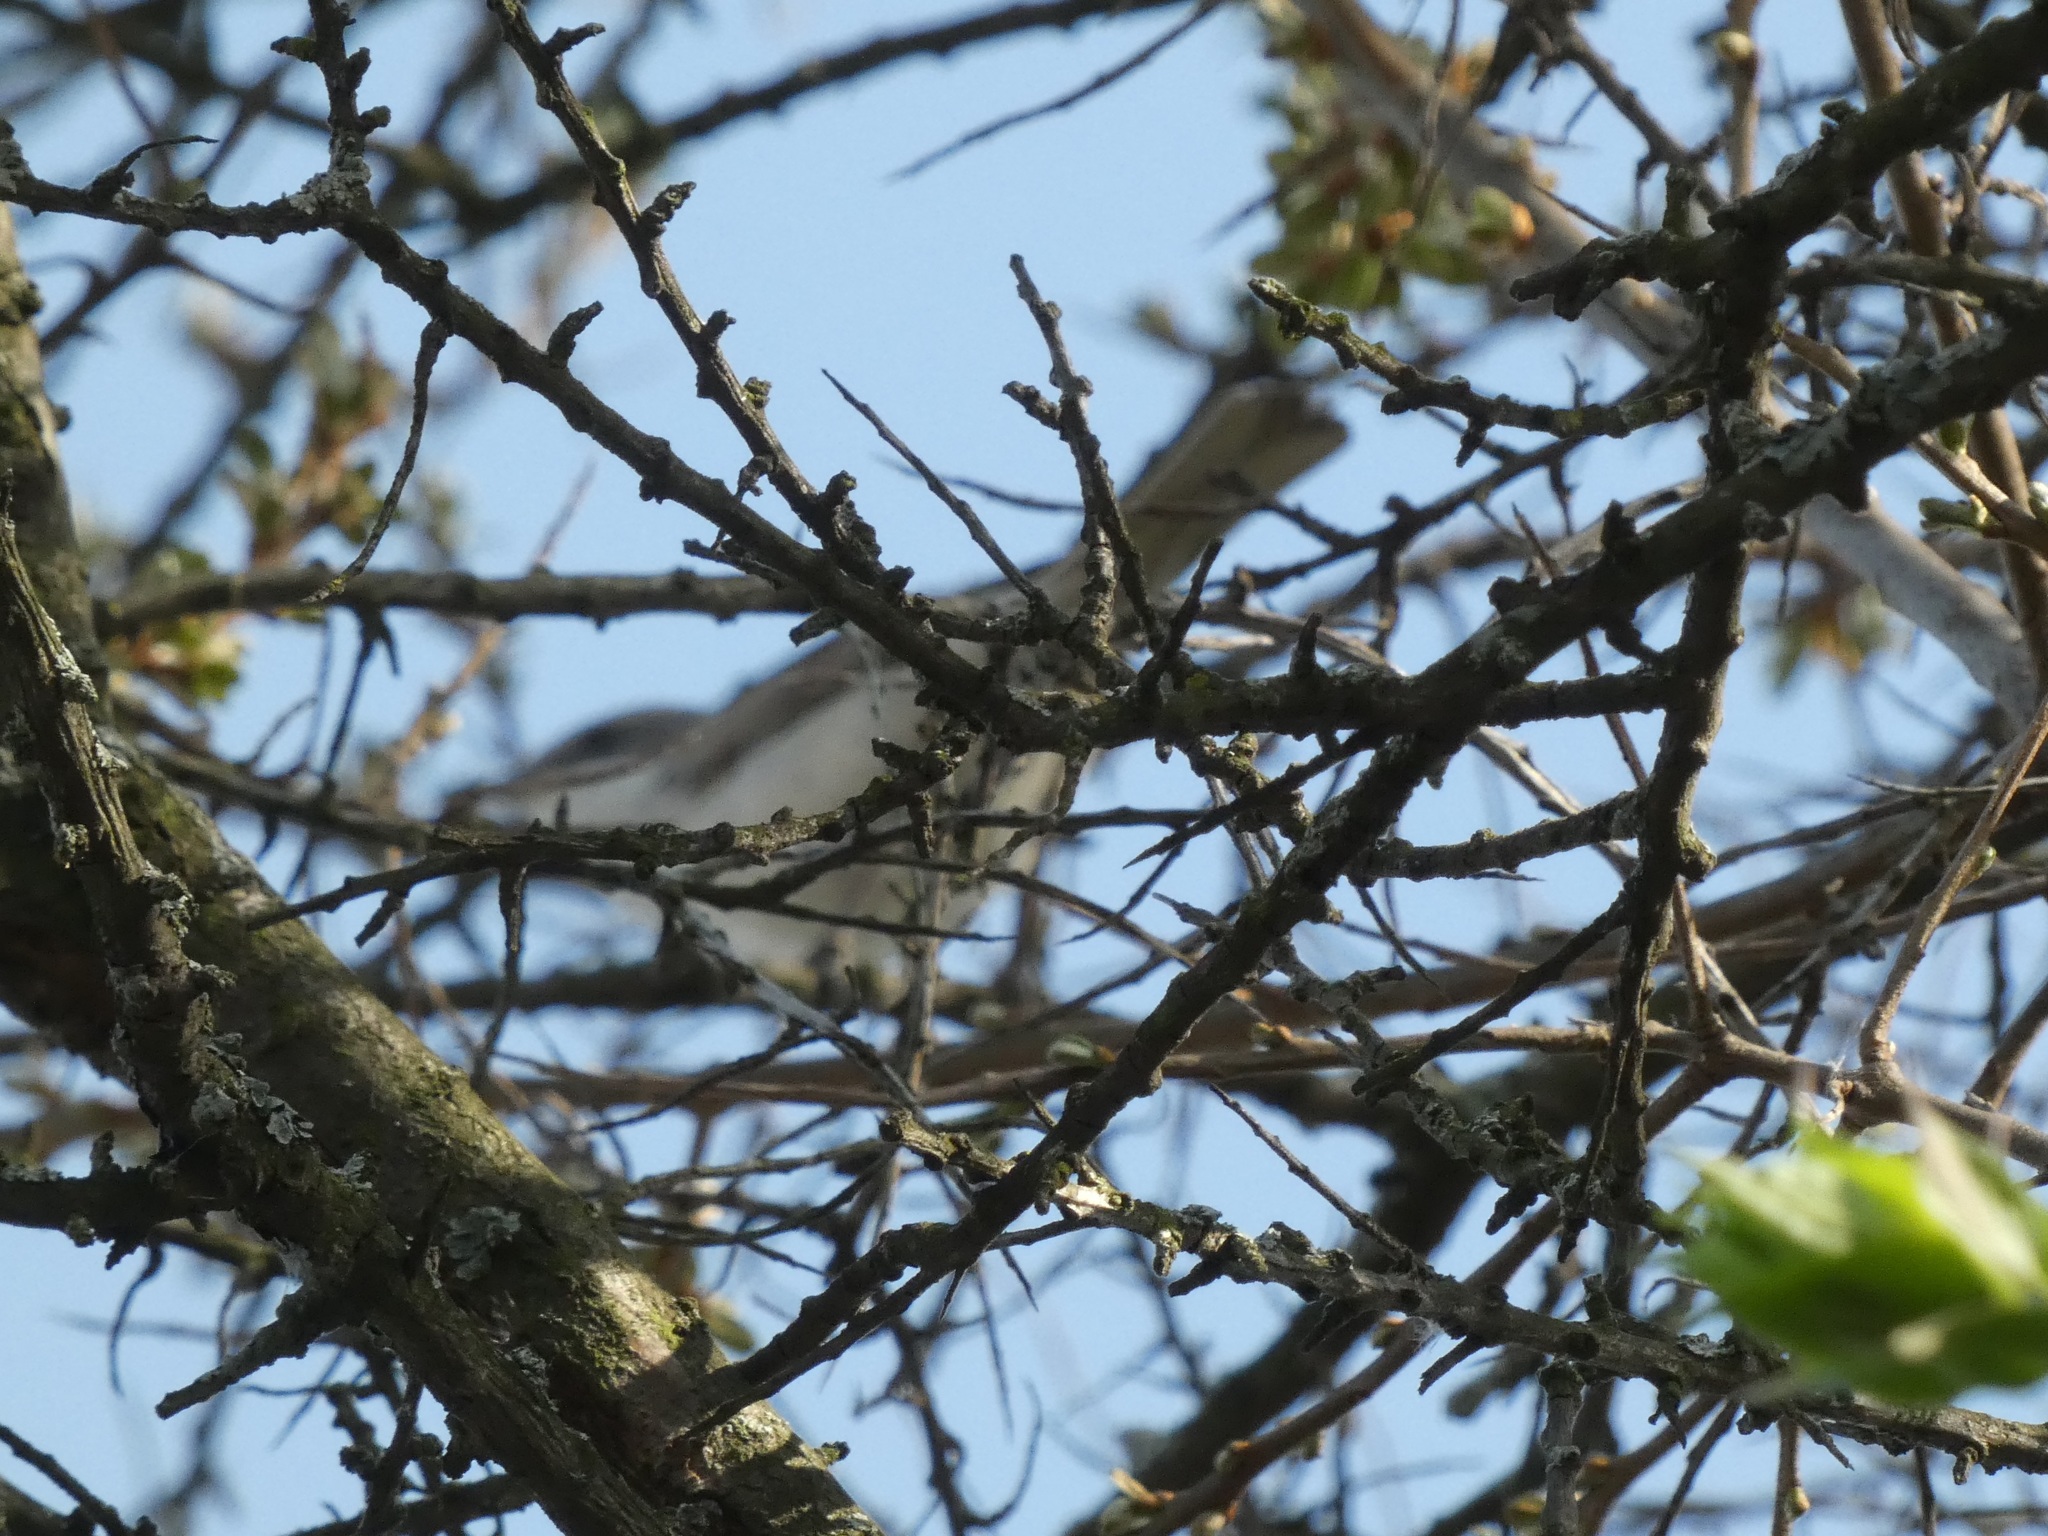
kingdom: Animalia
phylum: Chordata
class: Aves
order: Passeriformes
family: Phylloscopidae
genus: Phylloscopus
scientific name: Phylloscopus collybita
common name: Common chiffchaff
